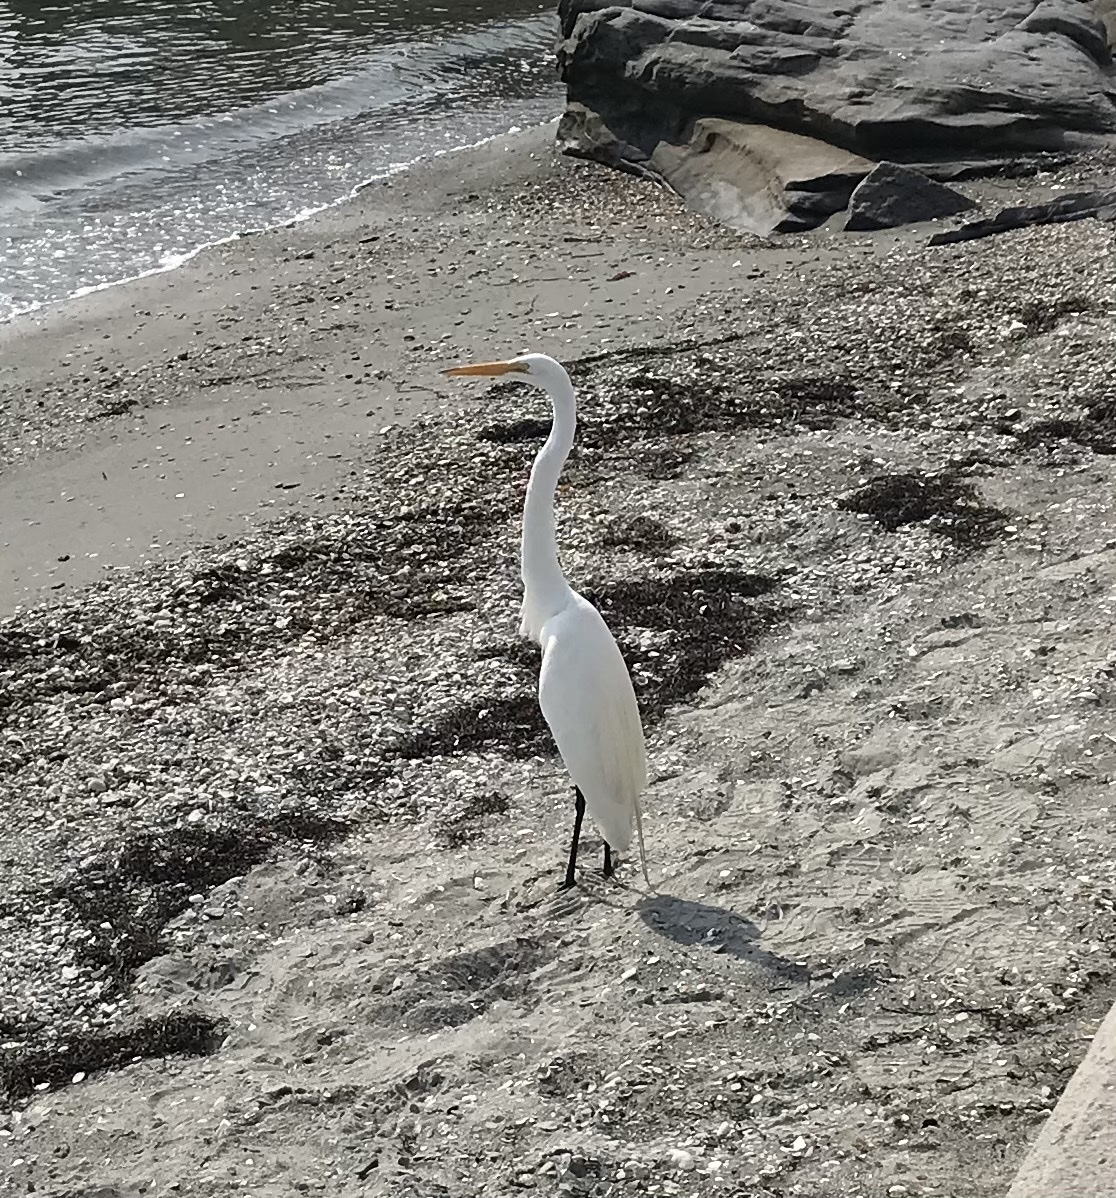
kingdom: Animalia
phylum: Chordata
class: Aves
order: Pelecaniformes
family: Ardeidae
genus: Ardea
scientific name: Ardea alba
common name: Great egret
